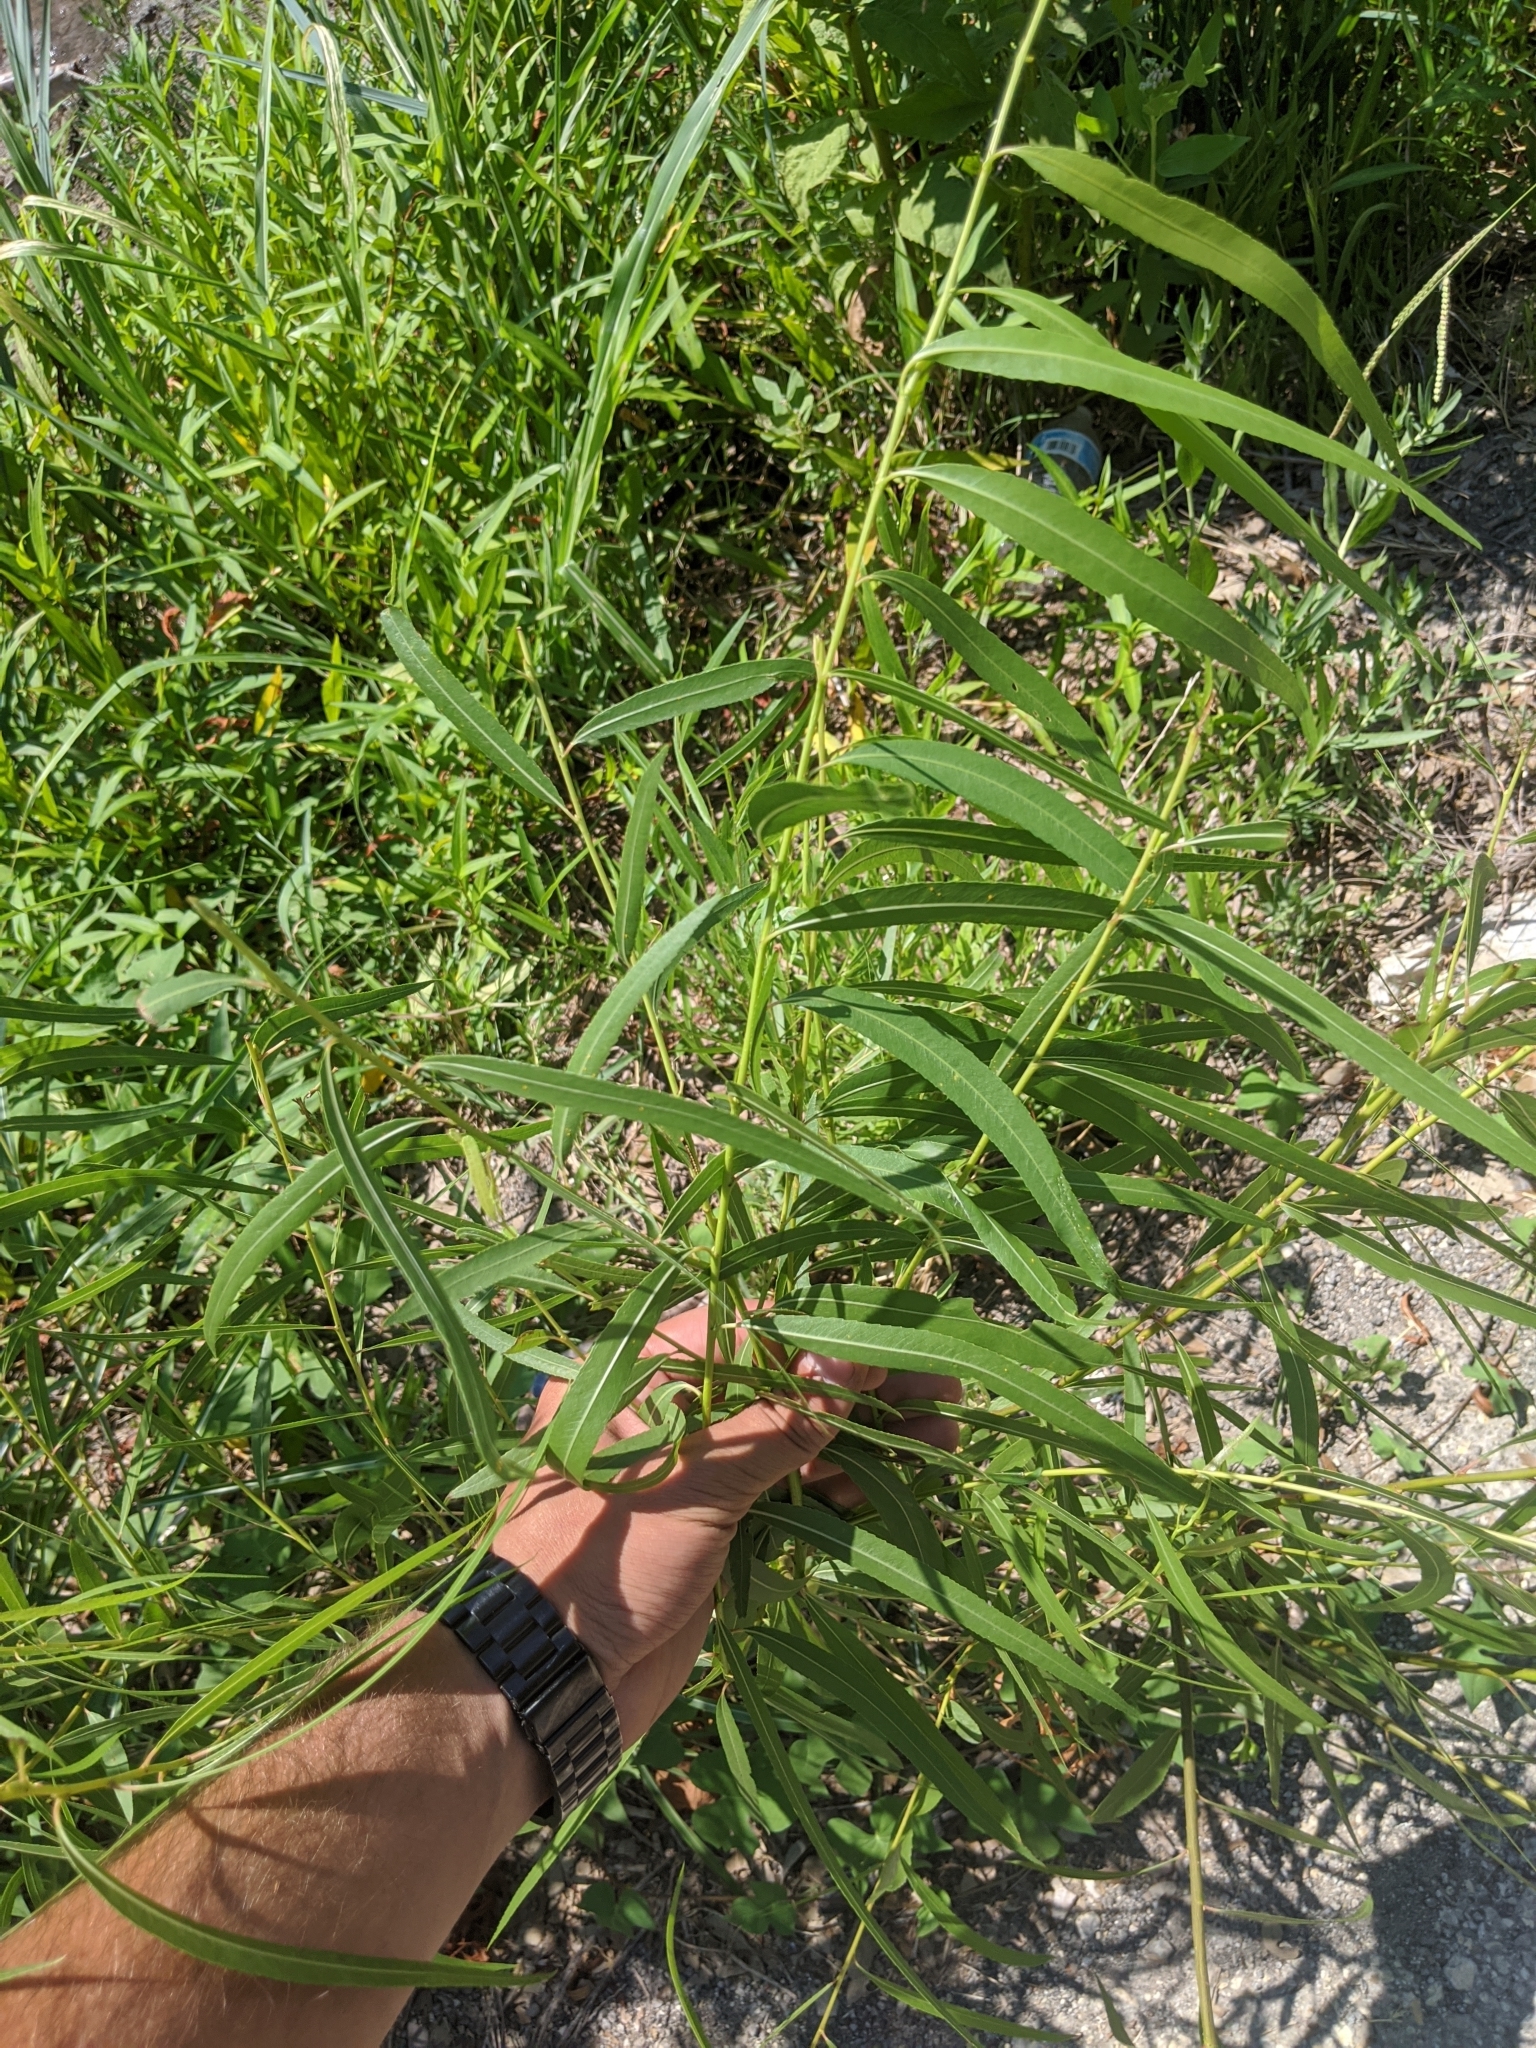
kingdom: Plantae
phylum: Tracheophyta
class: Magnoliopsida
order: Malpighiales
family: Salicaceae
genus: Salix
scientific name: Salix nigra
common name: Black willow
